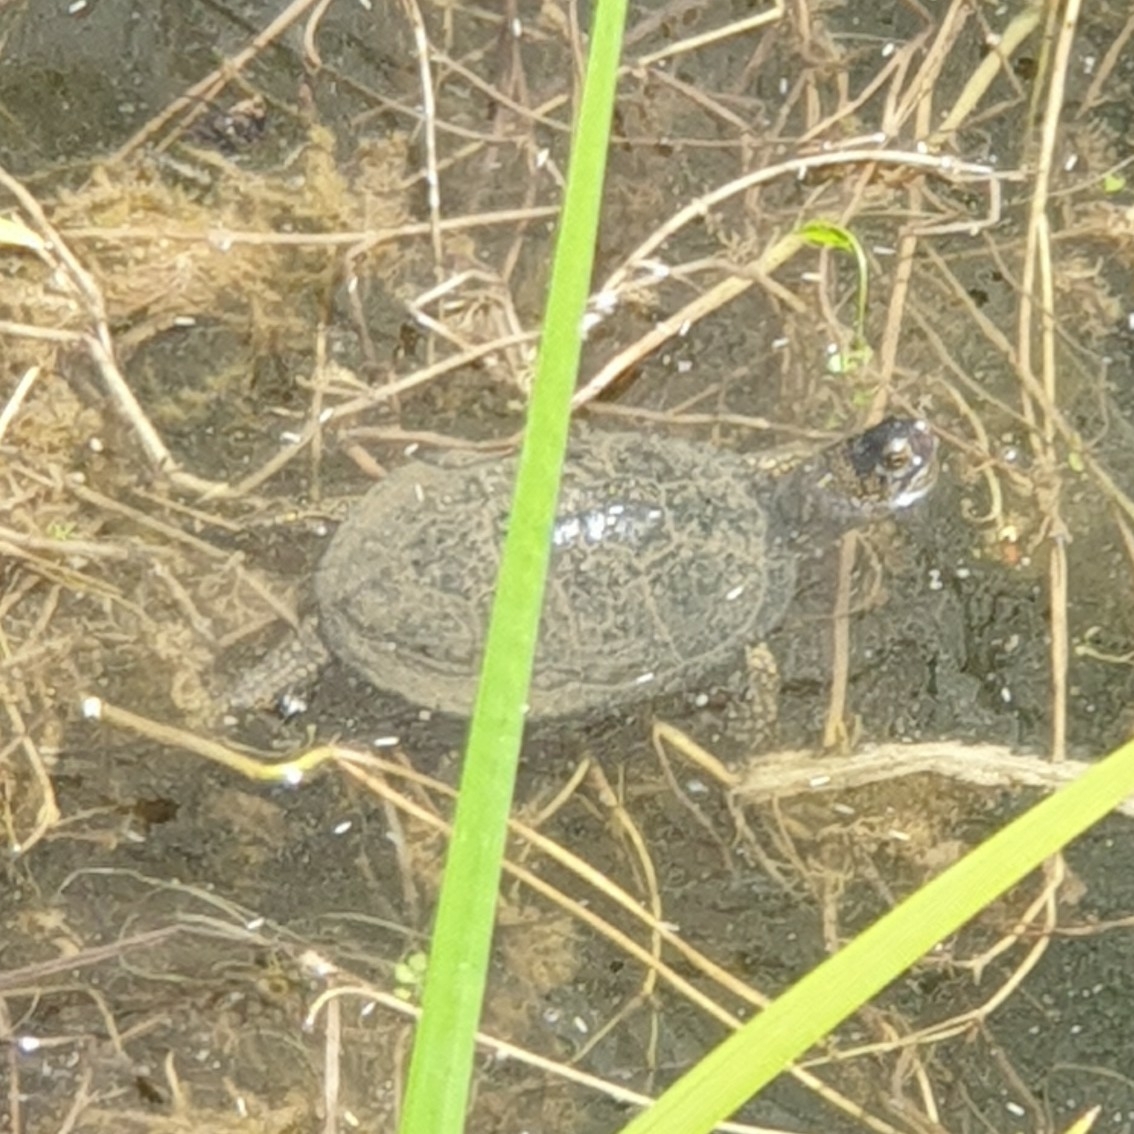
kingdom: Animalia
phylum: Chordata
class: Testudines
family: Emydidae
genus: Emys
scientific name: Emys orbicularis
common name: European pond turtle
